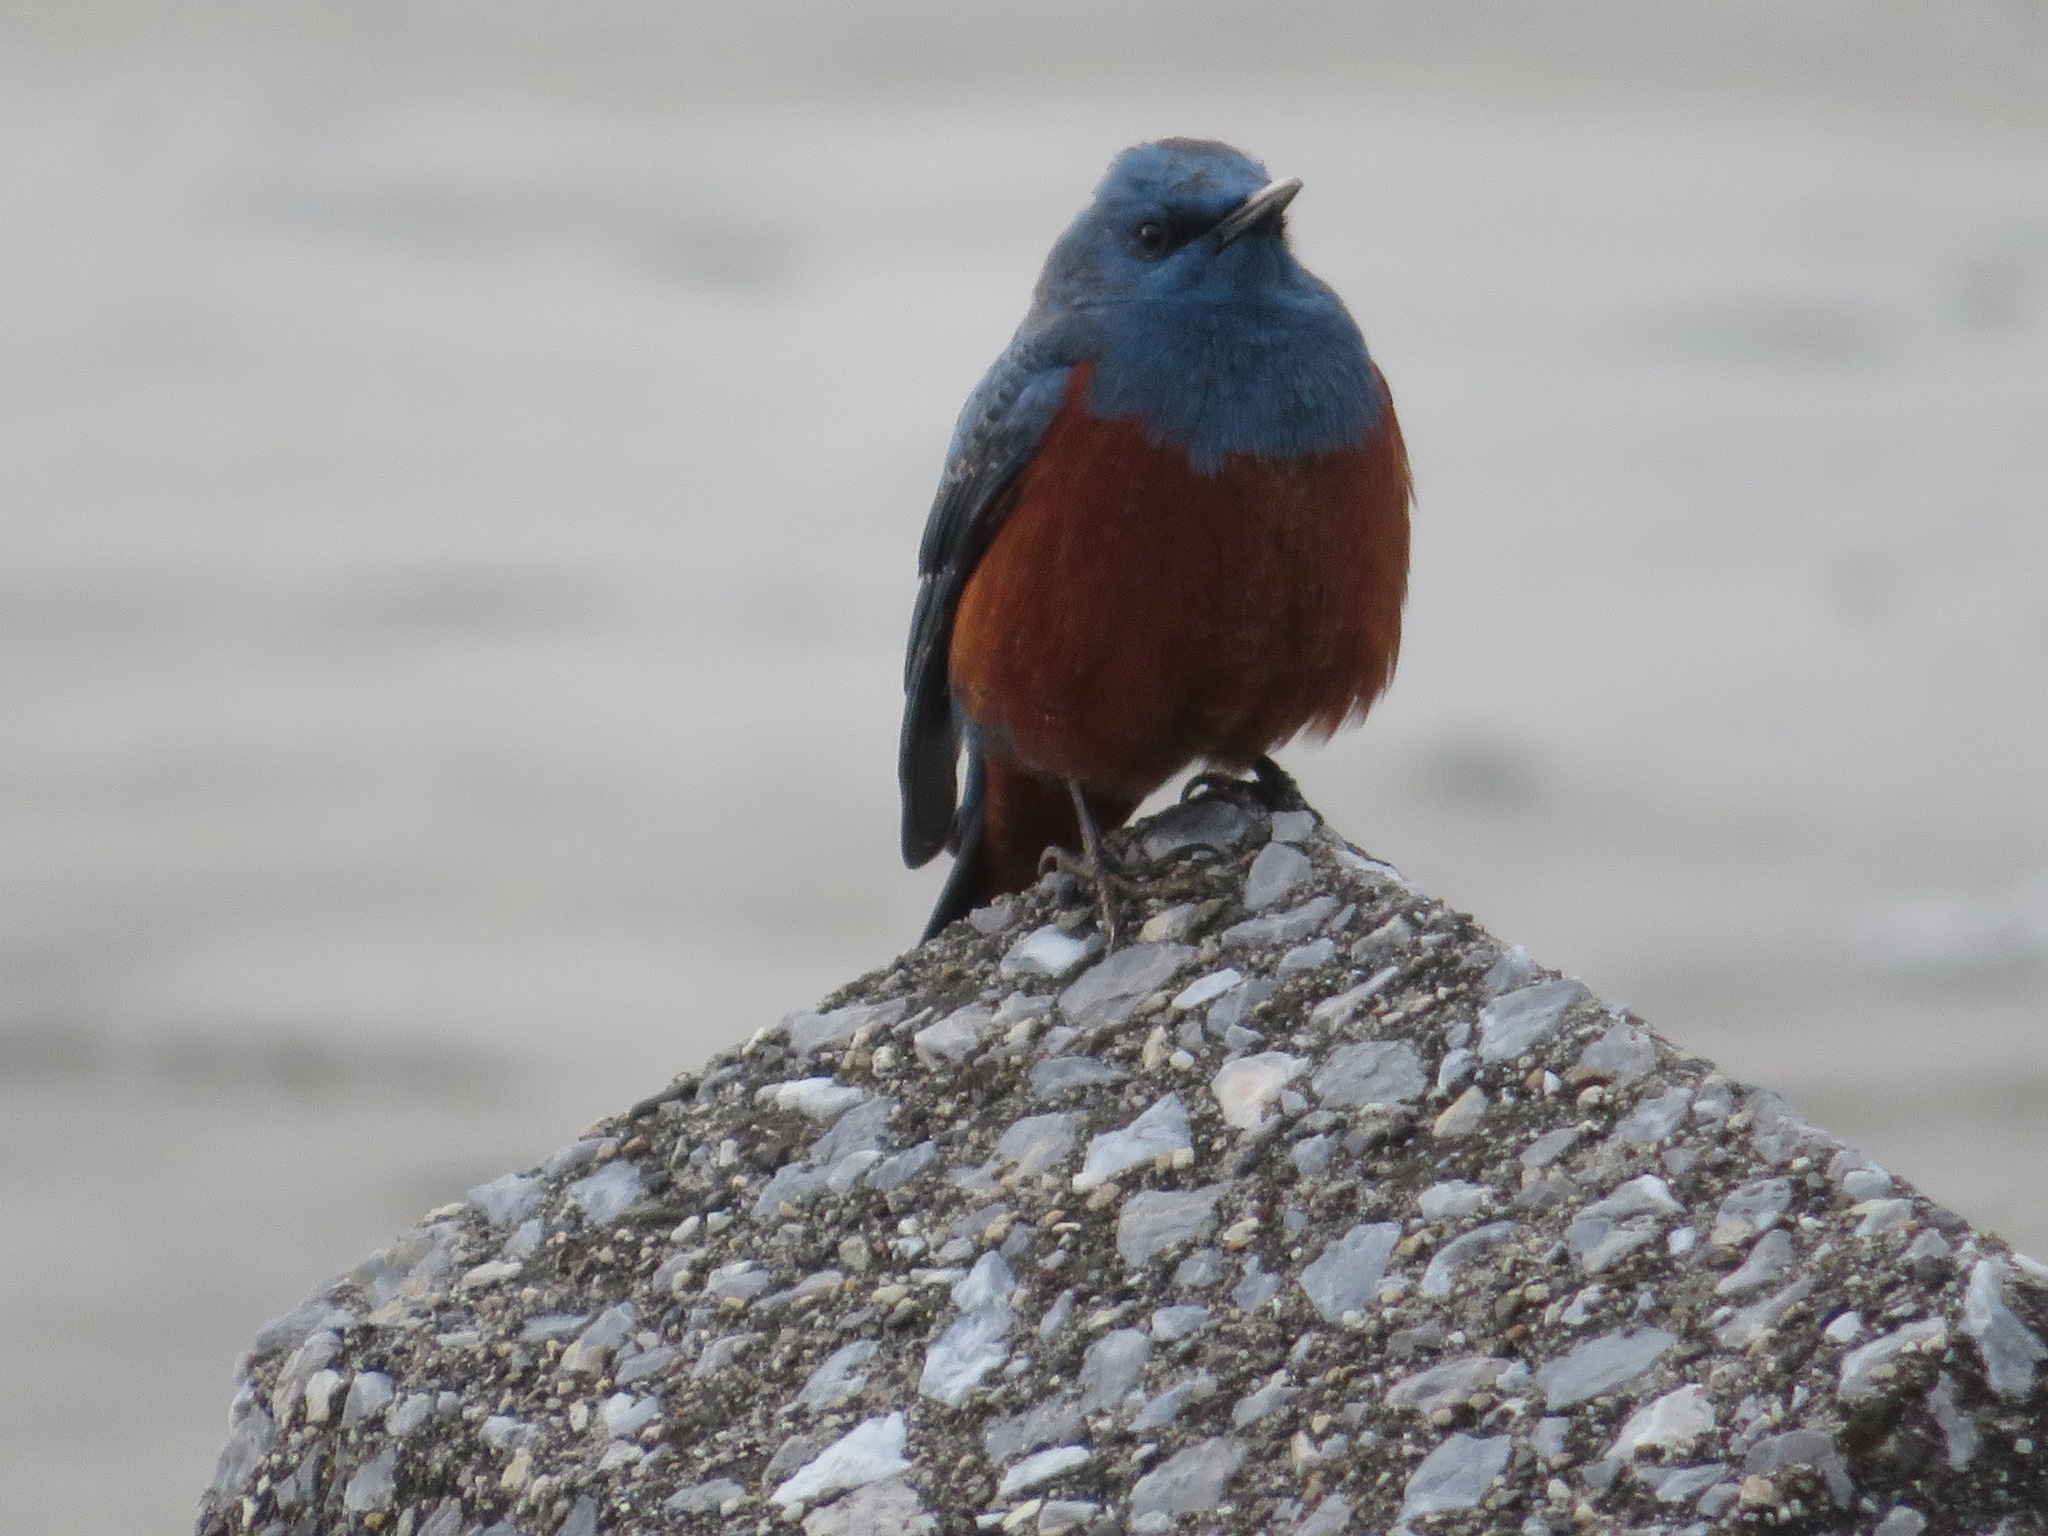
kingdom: Animalia
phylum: Chordata
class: Aves
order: Passeriformes
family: Muscicapidae
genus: Monticola
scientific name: Monticola solitarius
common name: Blue rock thrush
